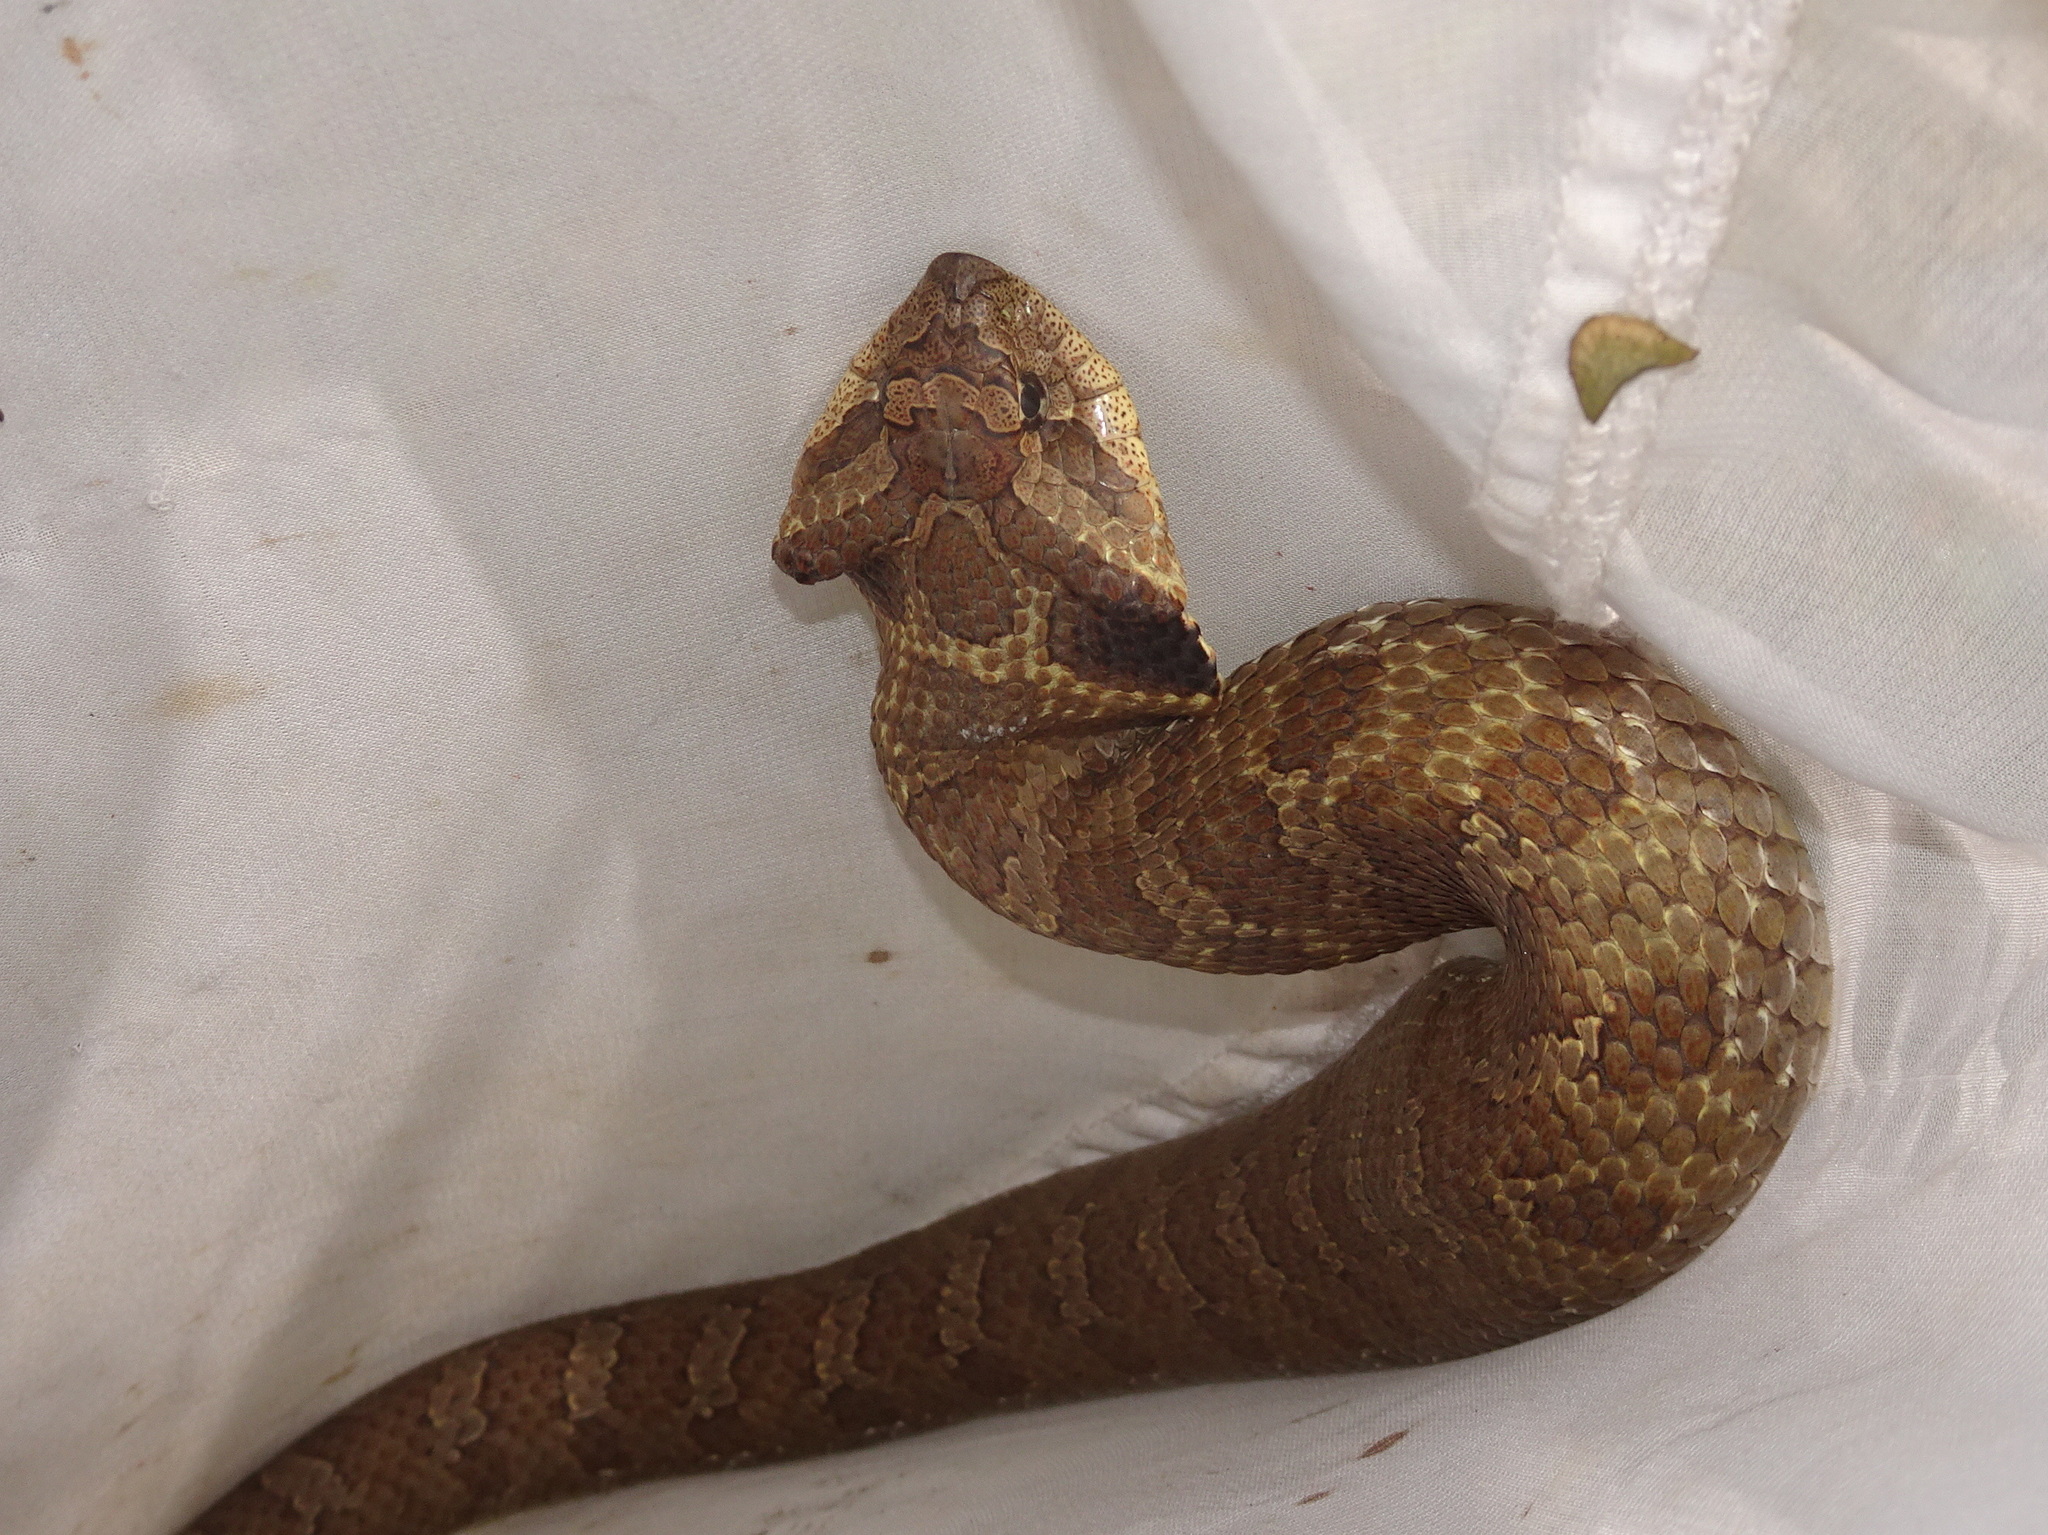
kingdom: Animalia
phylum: Chordata
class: Squamata
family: Colubridae
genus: Heterodon
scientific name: Heterodon platirhinos
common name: Eastern hognose snake
